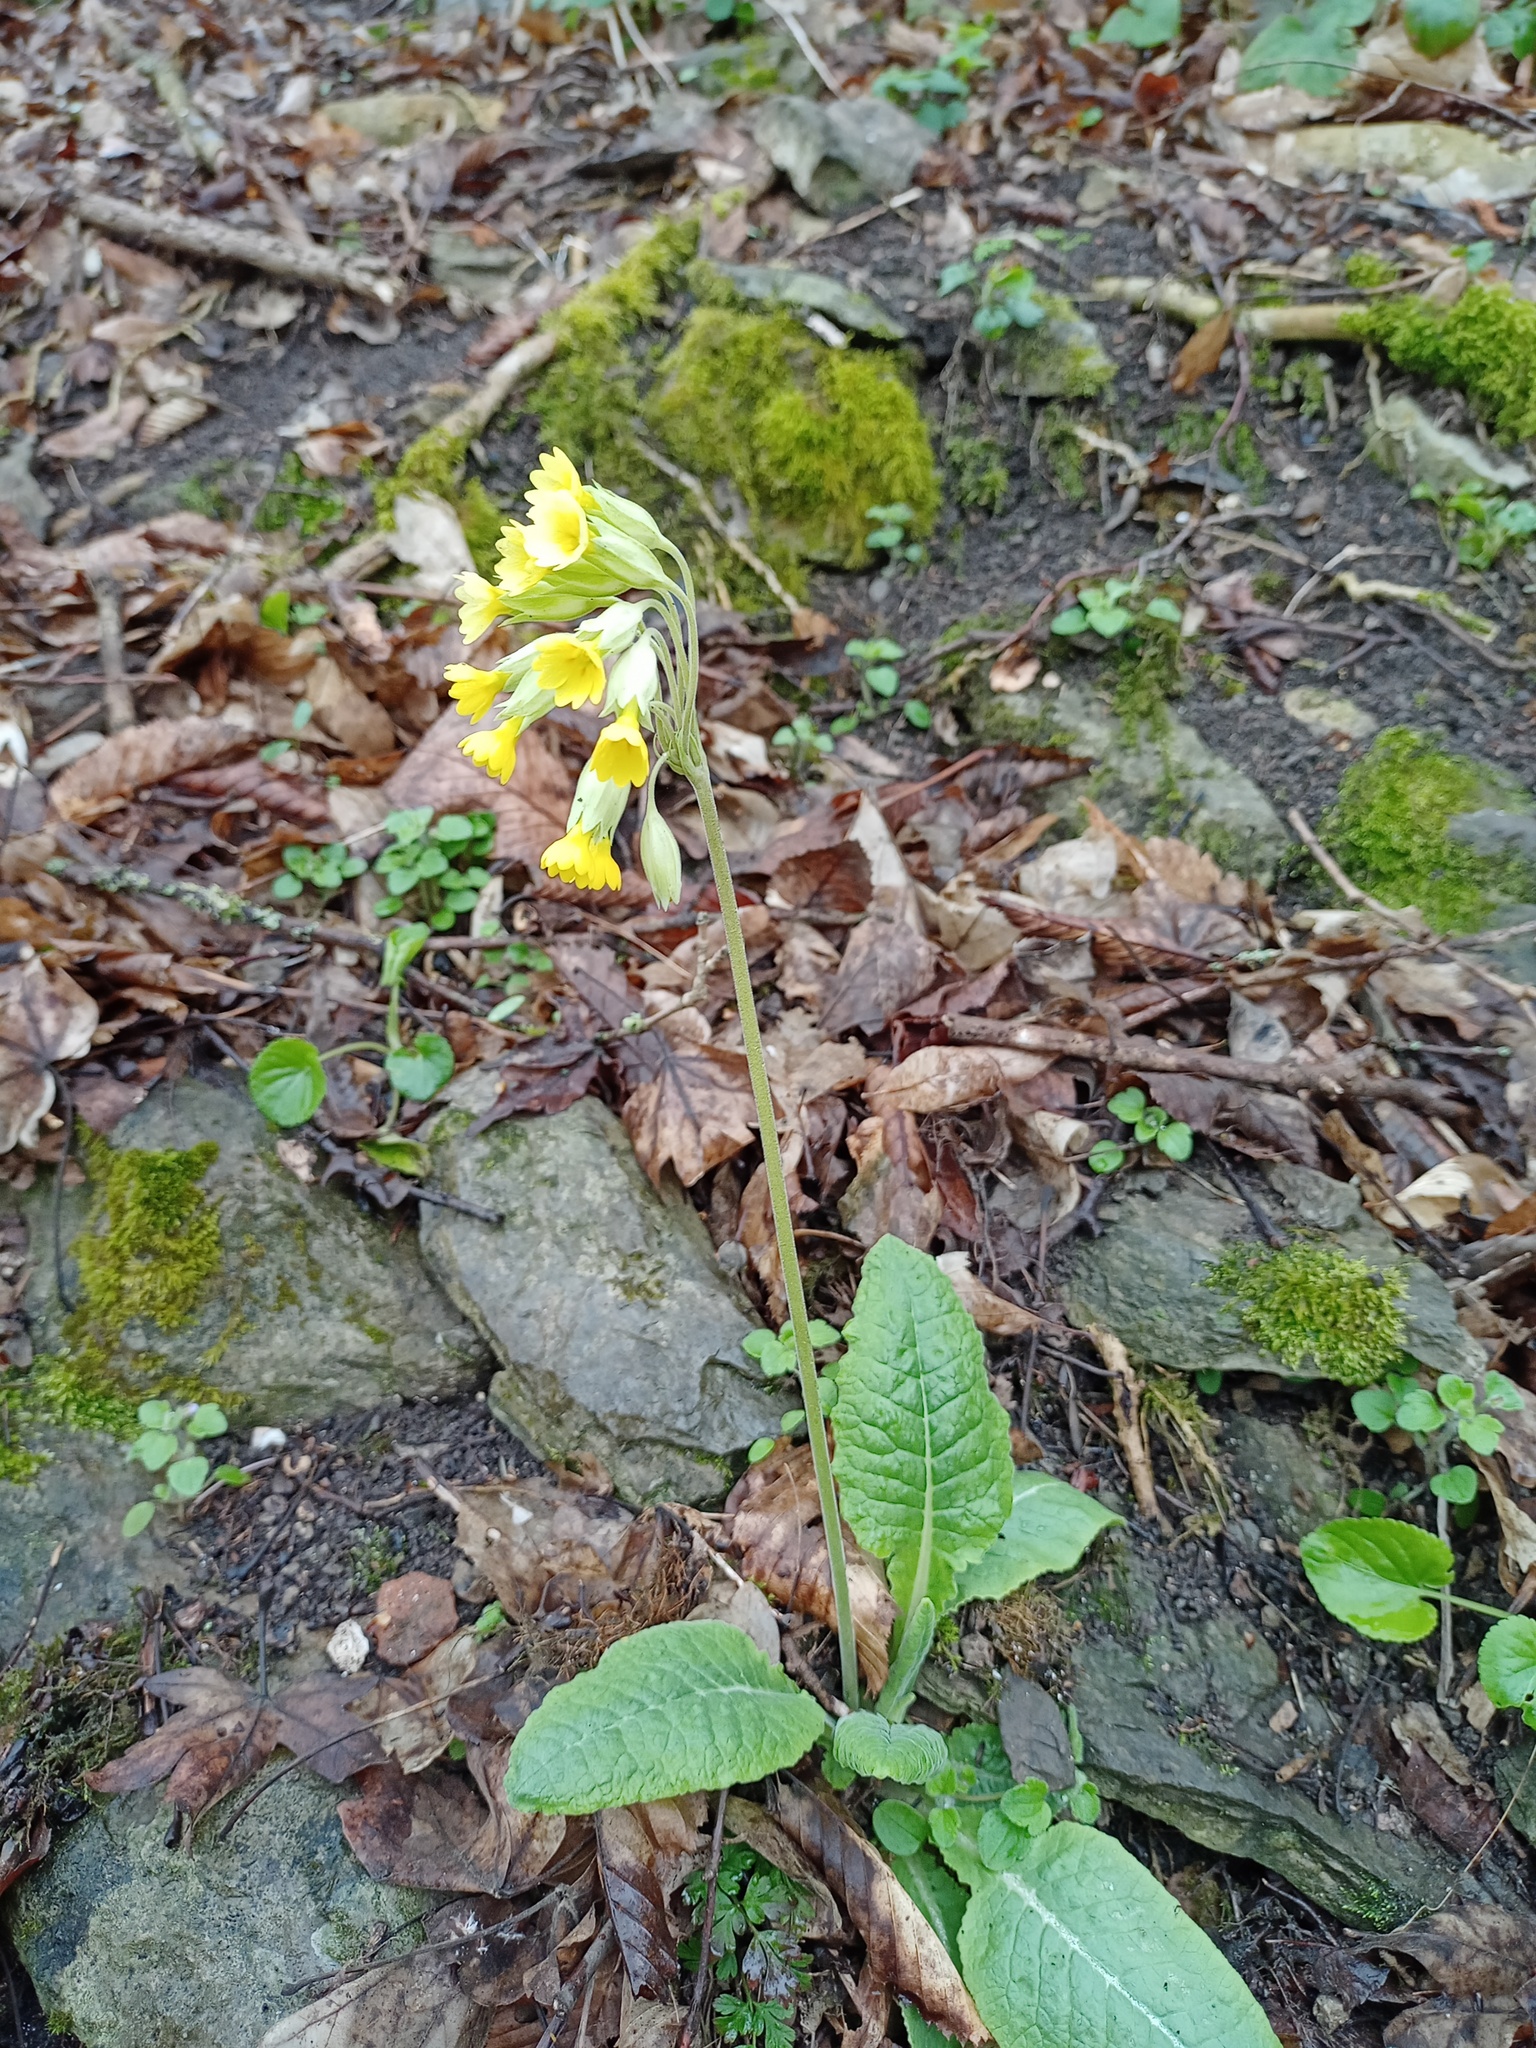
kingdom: Plantae
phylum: Tracheophyta
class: Magnoliopsida
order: Ericales
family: Primulaceae
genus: Primula
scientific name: Primula veris
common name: Cowslip
